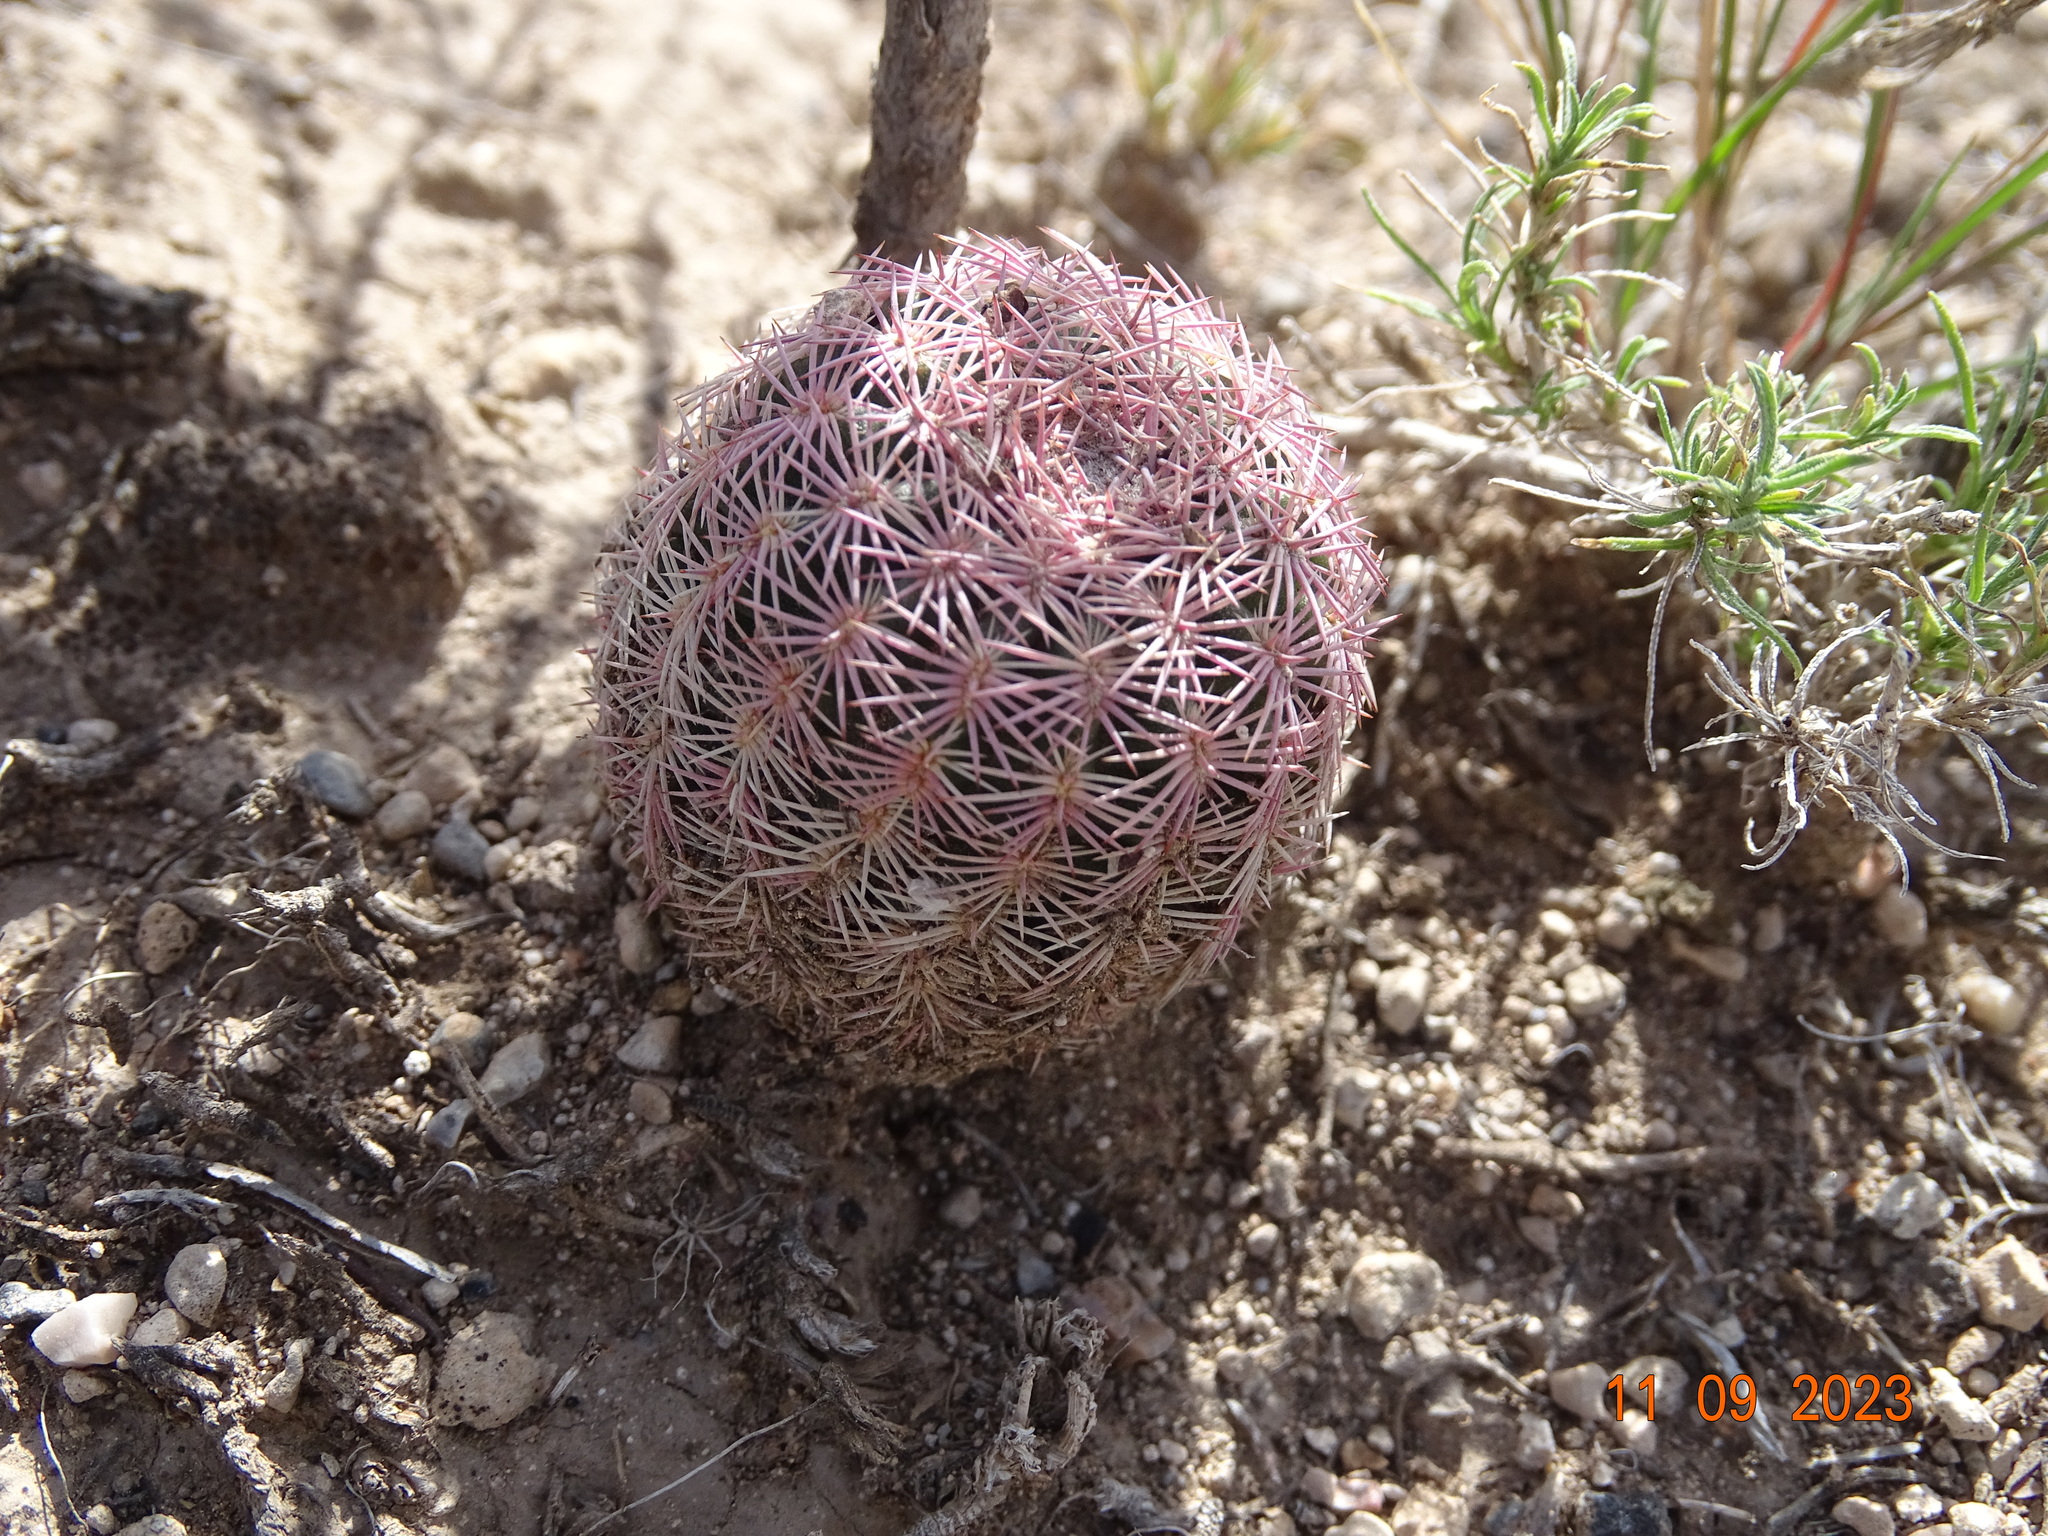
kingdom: Plantae
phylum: Tracheophyta
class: Magnoliopsida
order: Caryophyllales
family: Cactaceae
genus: Echinocereus
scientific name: Echinocereus pectinatus
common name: Rainbow cactus
